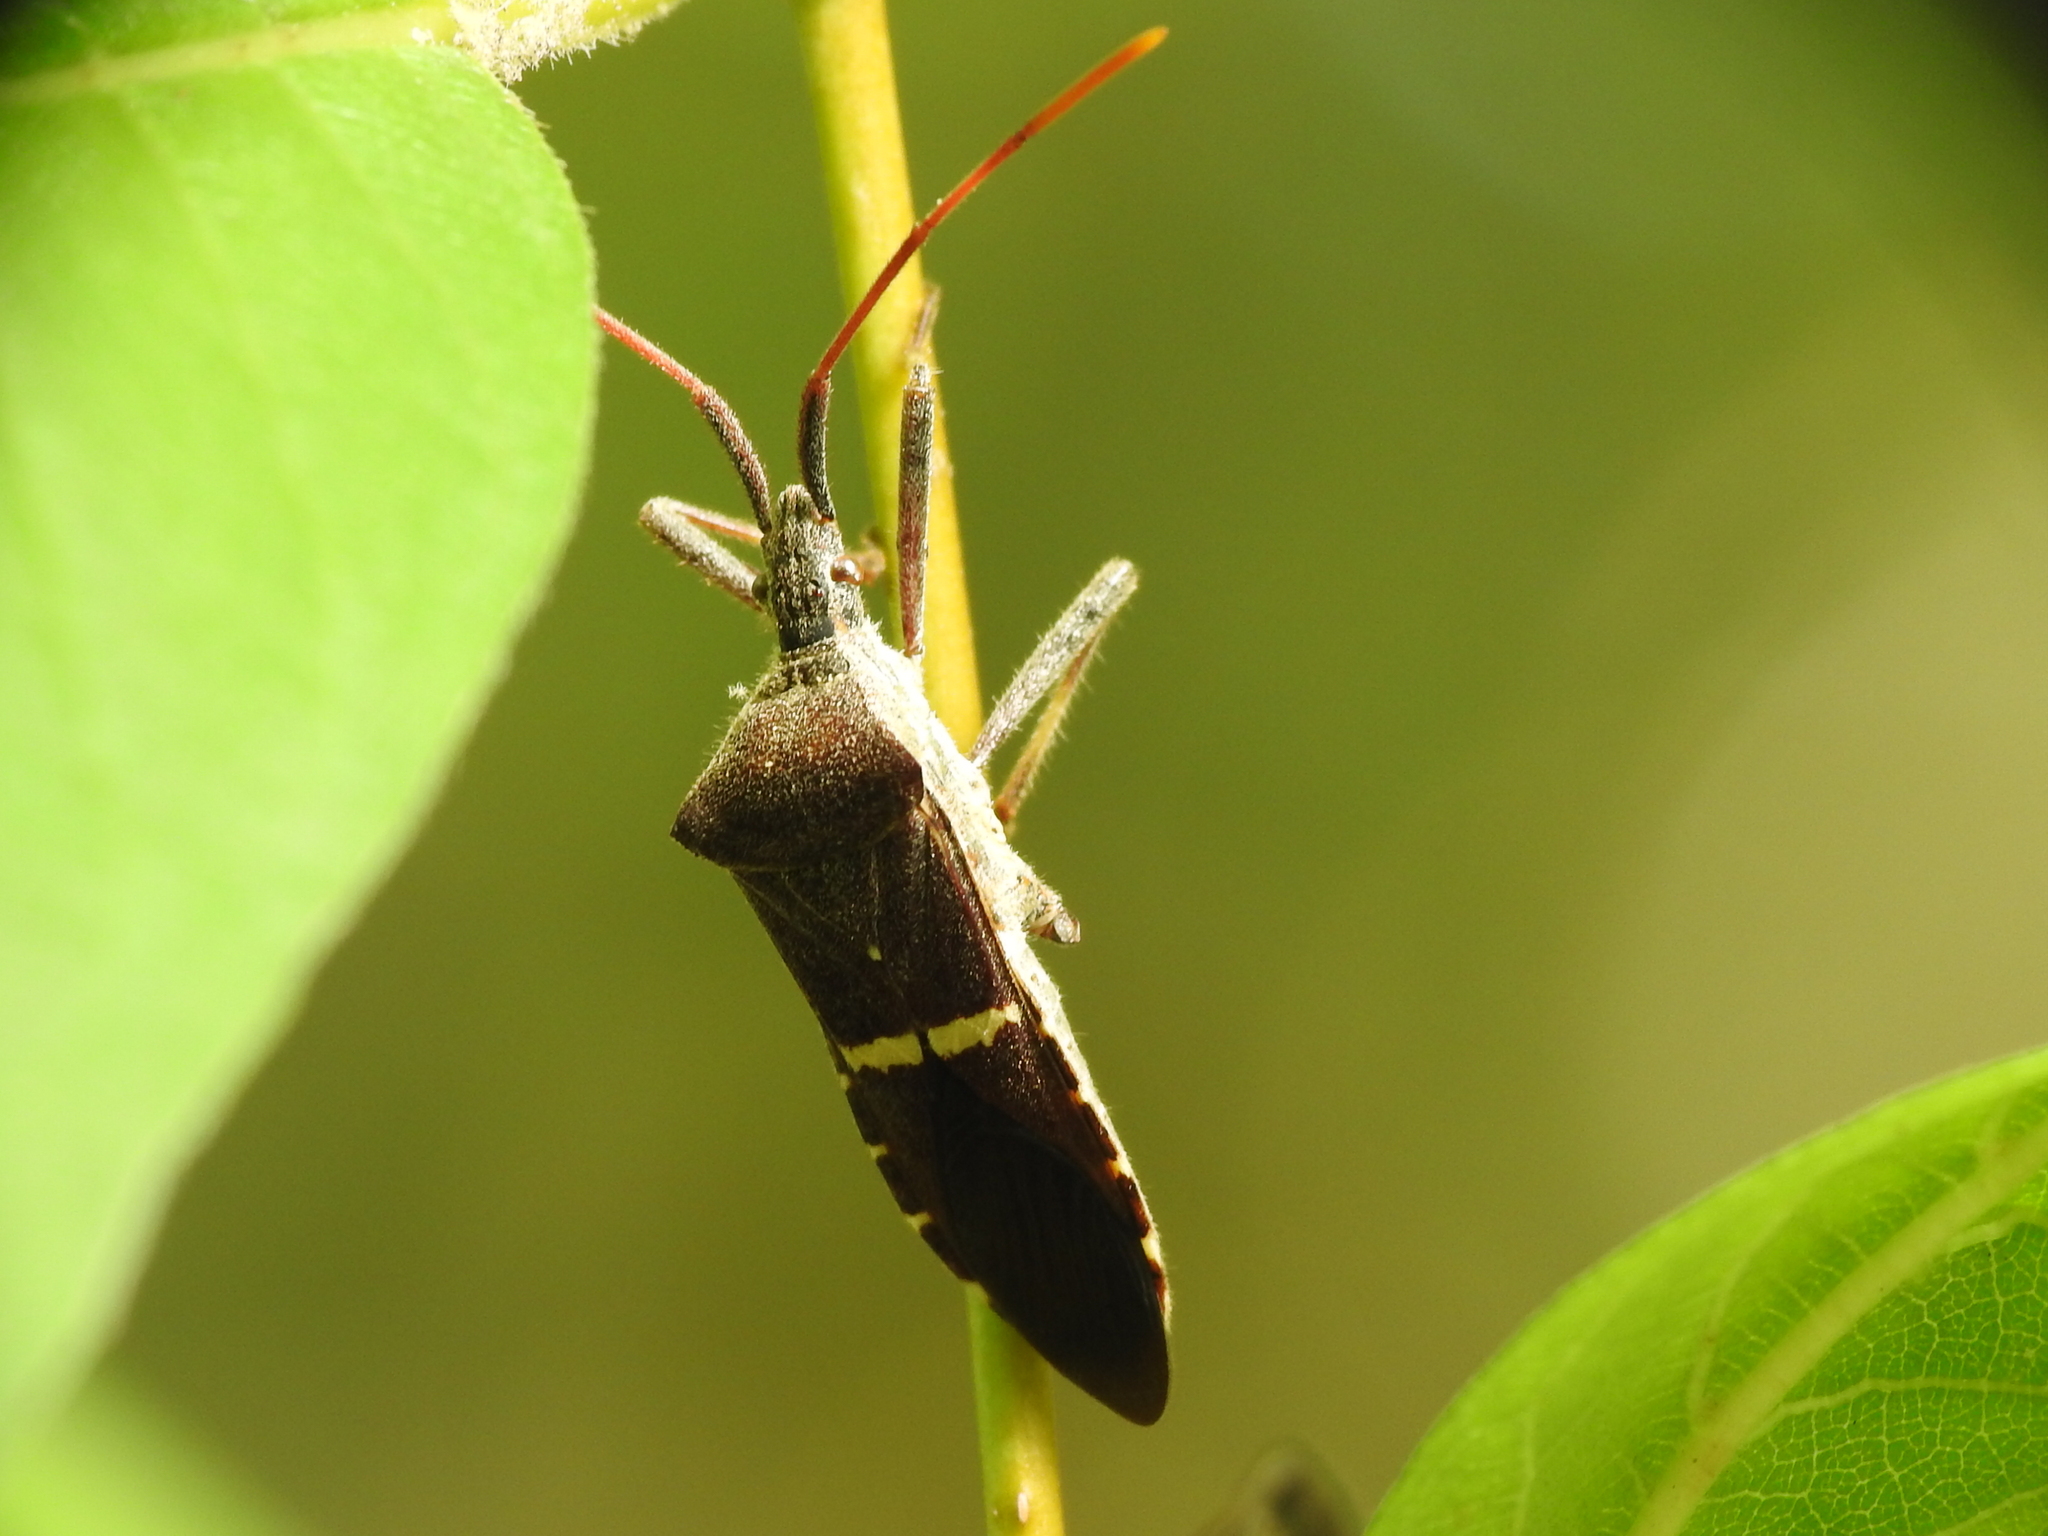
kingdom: Animalia
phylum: Arthropoda
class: Insecta
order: Hemiptera
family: Coreidae
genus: Leptoglossus
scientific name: Leptoglossus phyllopus
